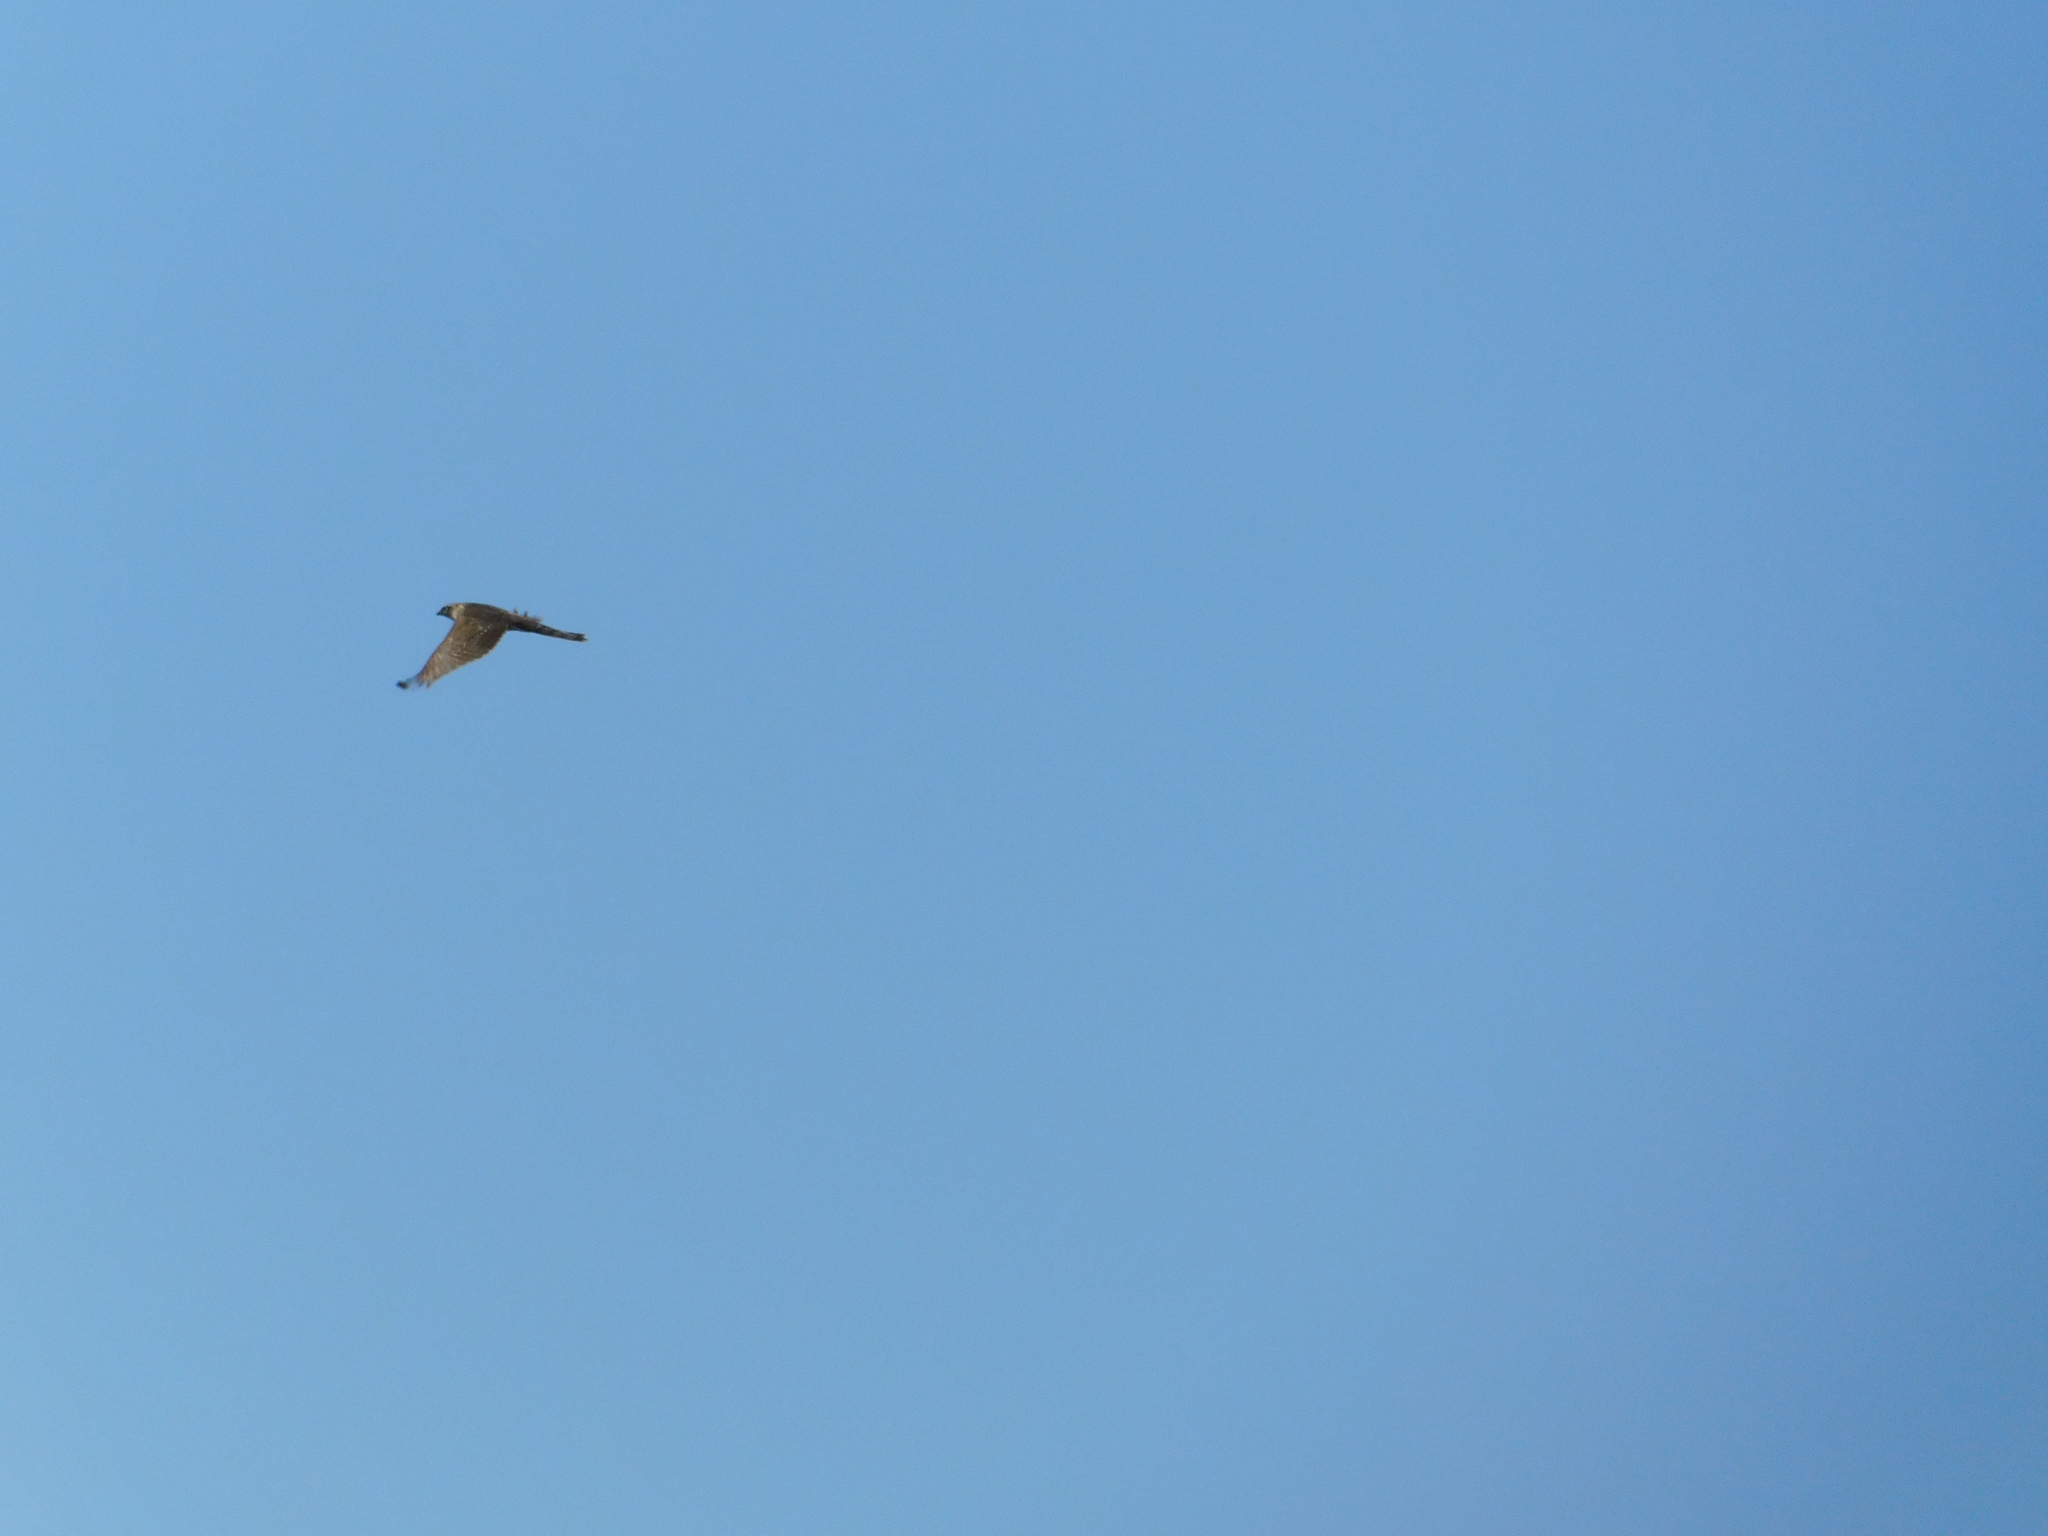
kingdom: Animalia
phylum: Chordata
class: Aves
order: Accipitriformes
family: Accipitridae
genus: Accipiter
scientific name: Accipiter nisus
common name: Eurasian sparrowhawk
